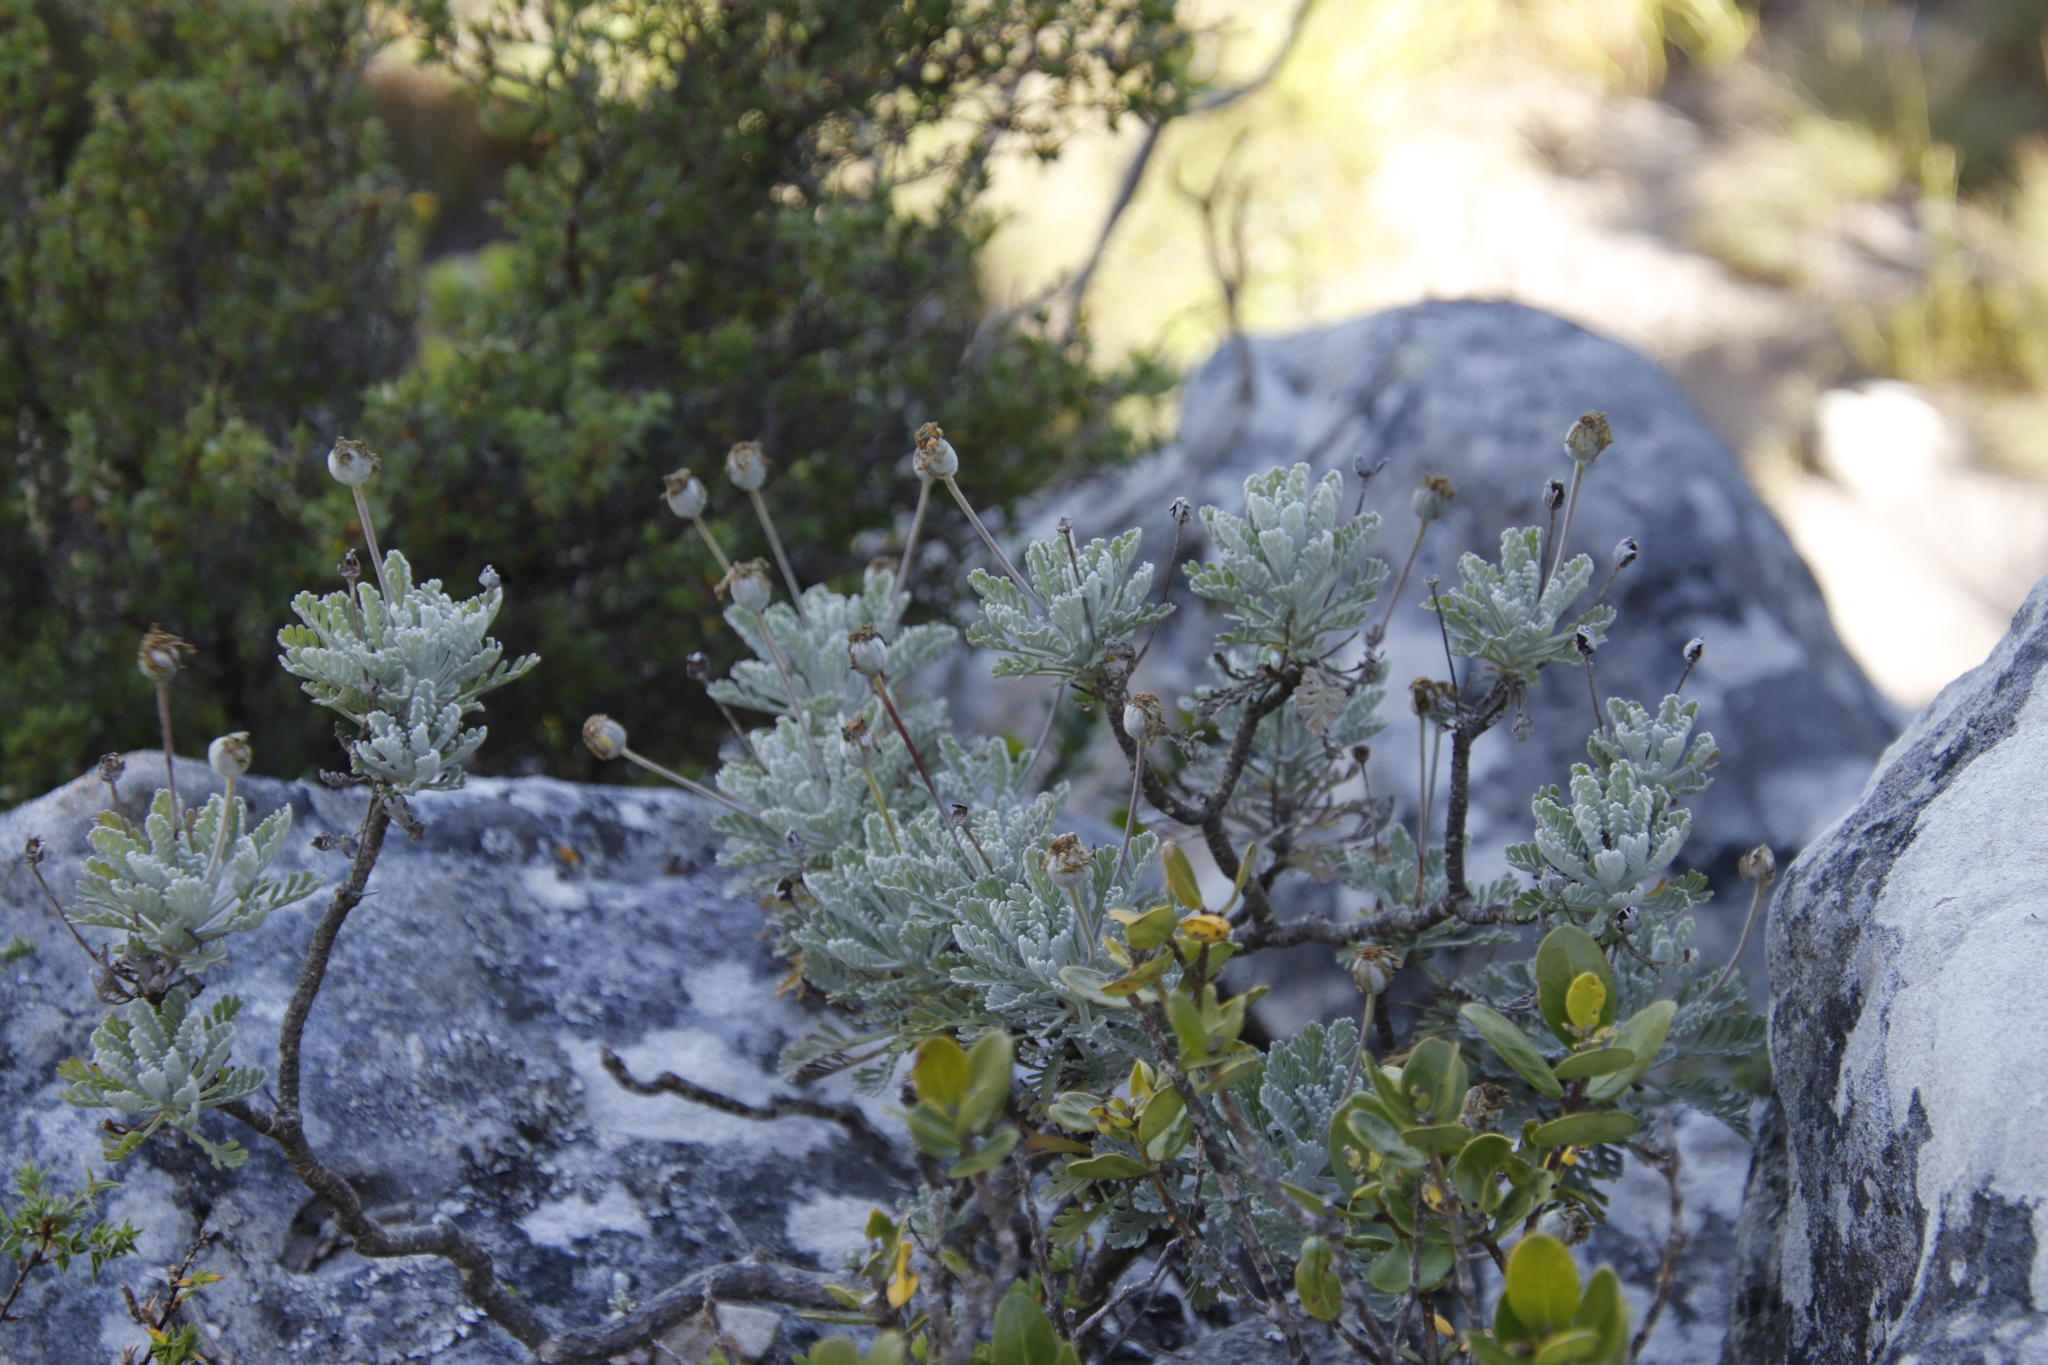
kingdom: Plantae
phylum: Tracheophyta
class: Magnoliopsida
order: Asterales
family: Asteraceae
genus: Euryops
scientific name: Euryops pectinatus
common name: Gray-leaf euryops
